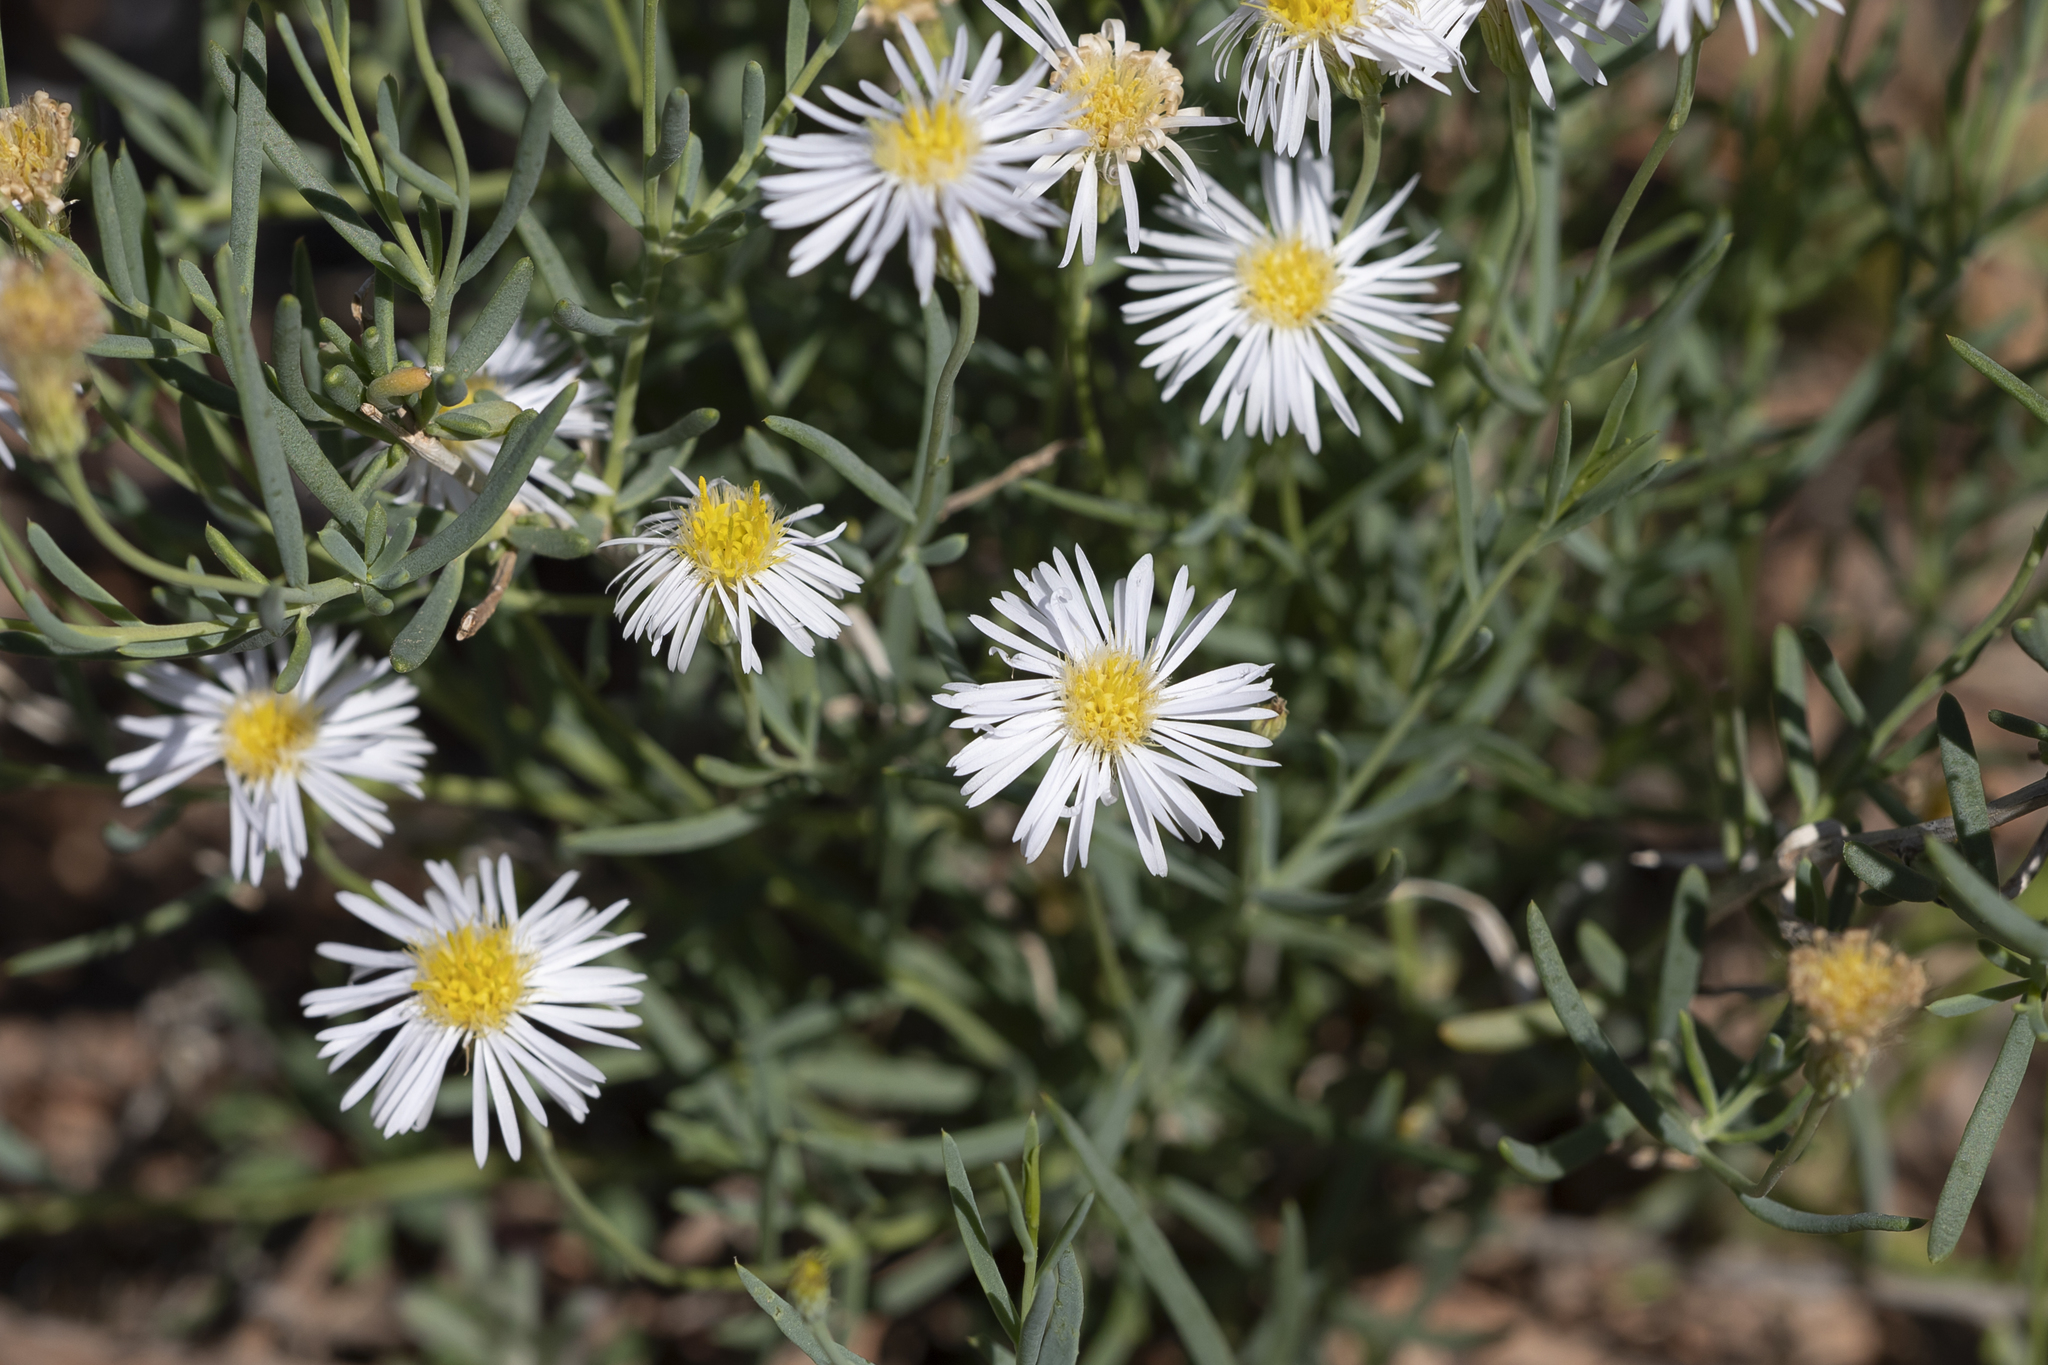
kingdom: Plantae
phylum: Tracheophyta
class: Magnoliopsida
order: Asterales
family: Asteraceae
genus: Minuria
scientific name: Minuria integerrima
